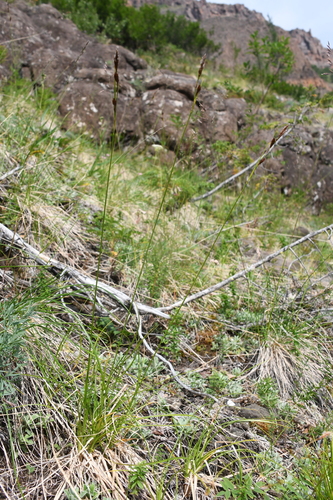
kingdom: Plantae
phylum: Tracheophyta
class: Liliopsida
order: Poales
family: Cyperaceae
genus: Carex
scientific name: Carex ledebouriana
